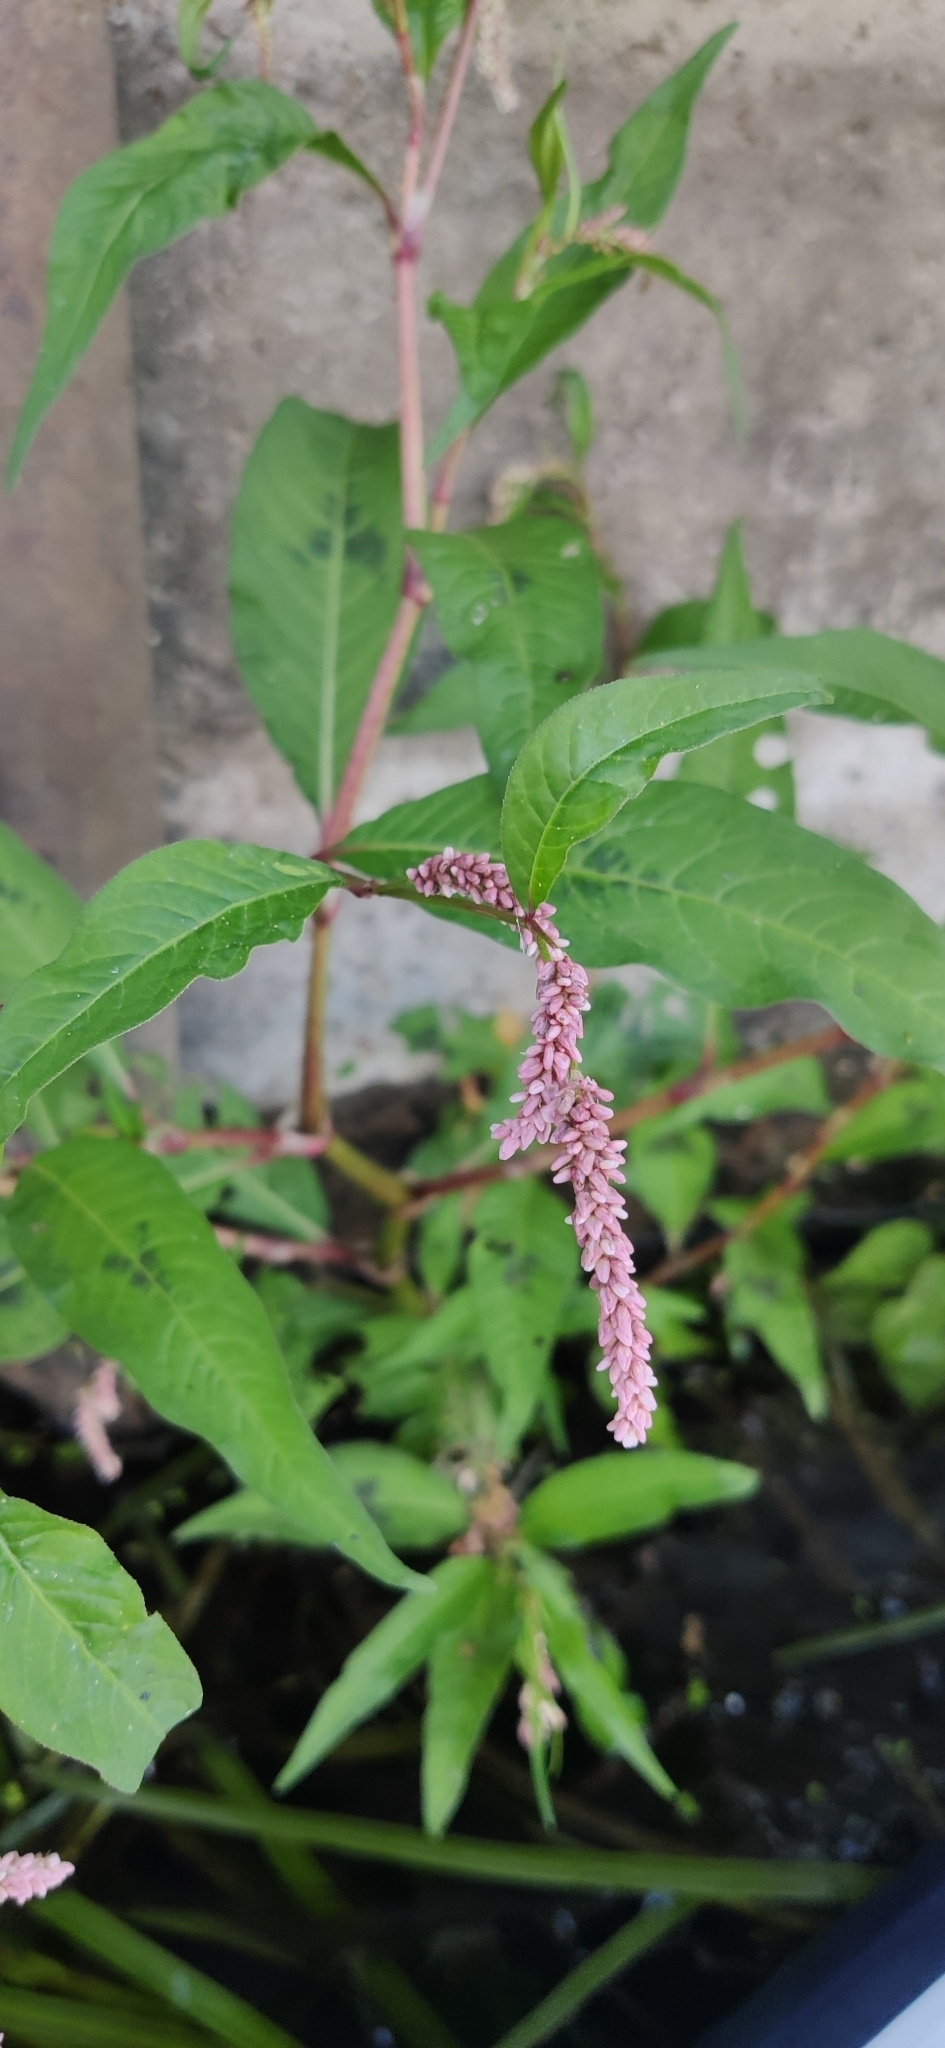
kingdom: Plantae
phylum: Tracheophyta
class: Magnoliopsida
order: Caryophyllales
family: Polygonaceae
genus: Persicaria
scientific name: Persicaria lapathifolia
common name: Curlytop knotweed
